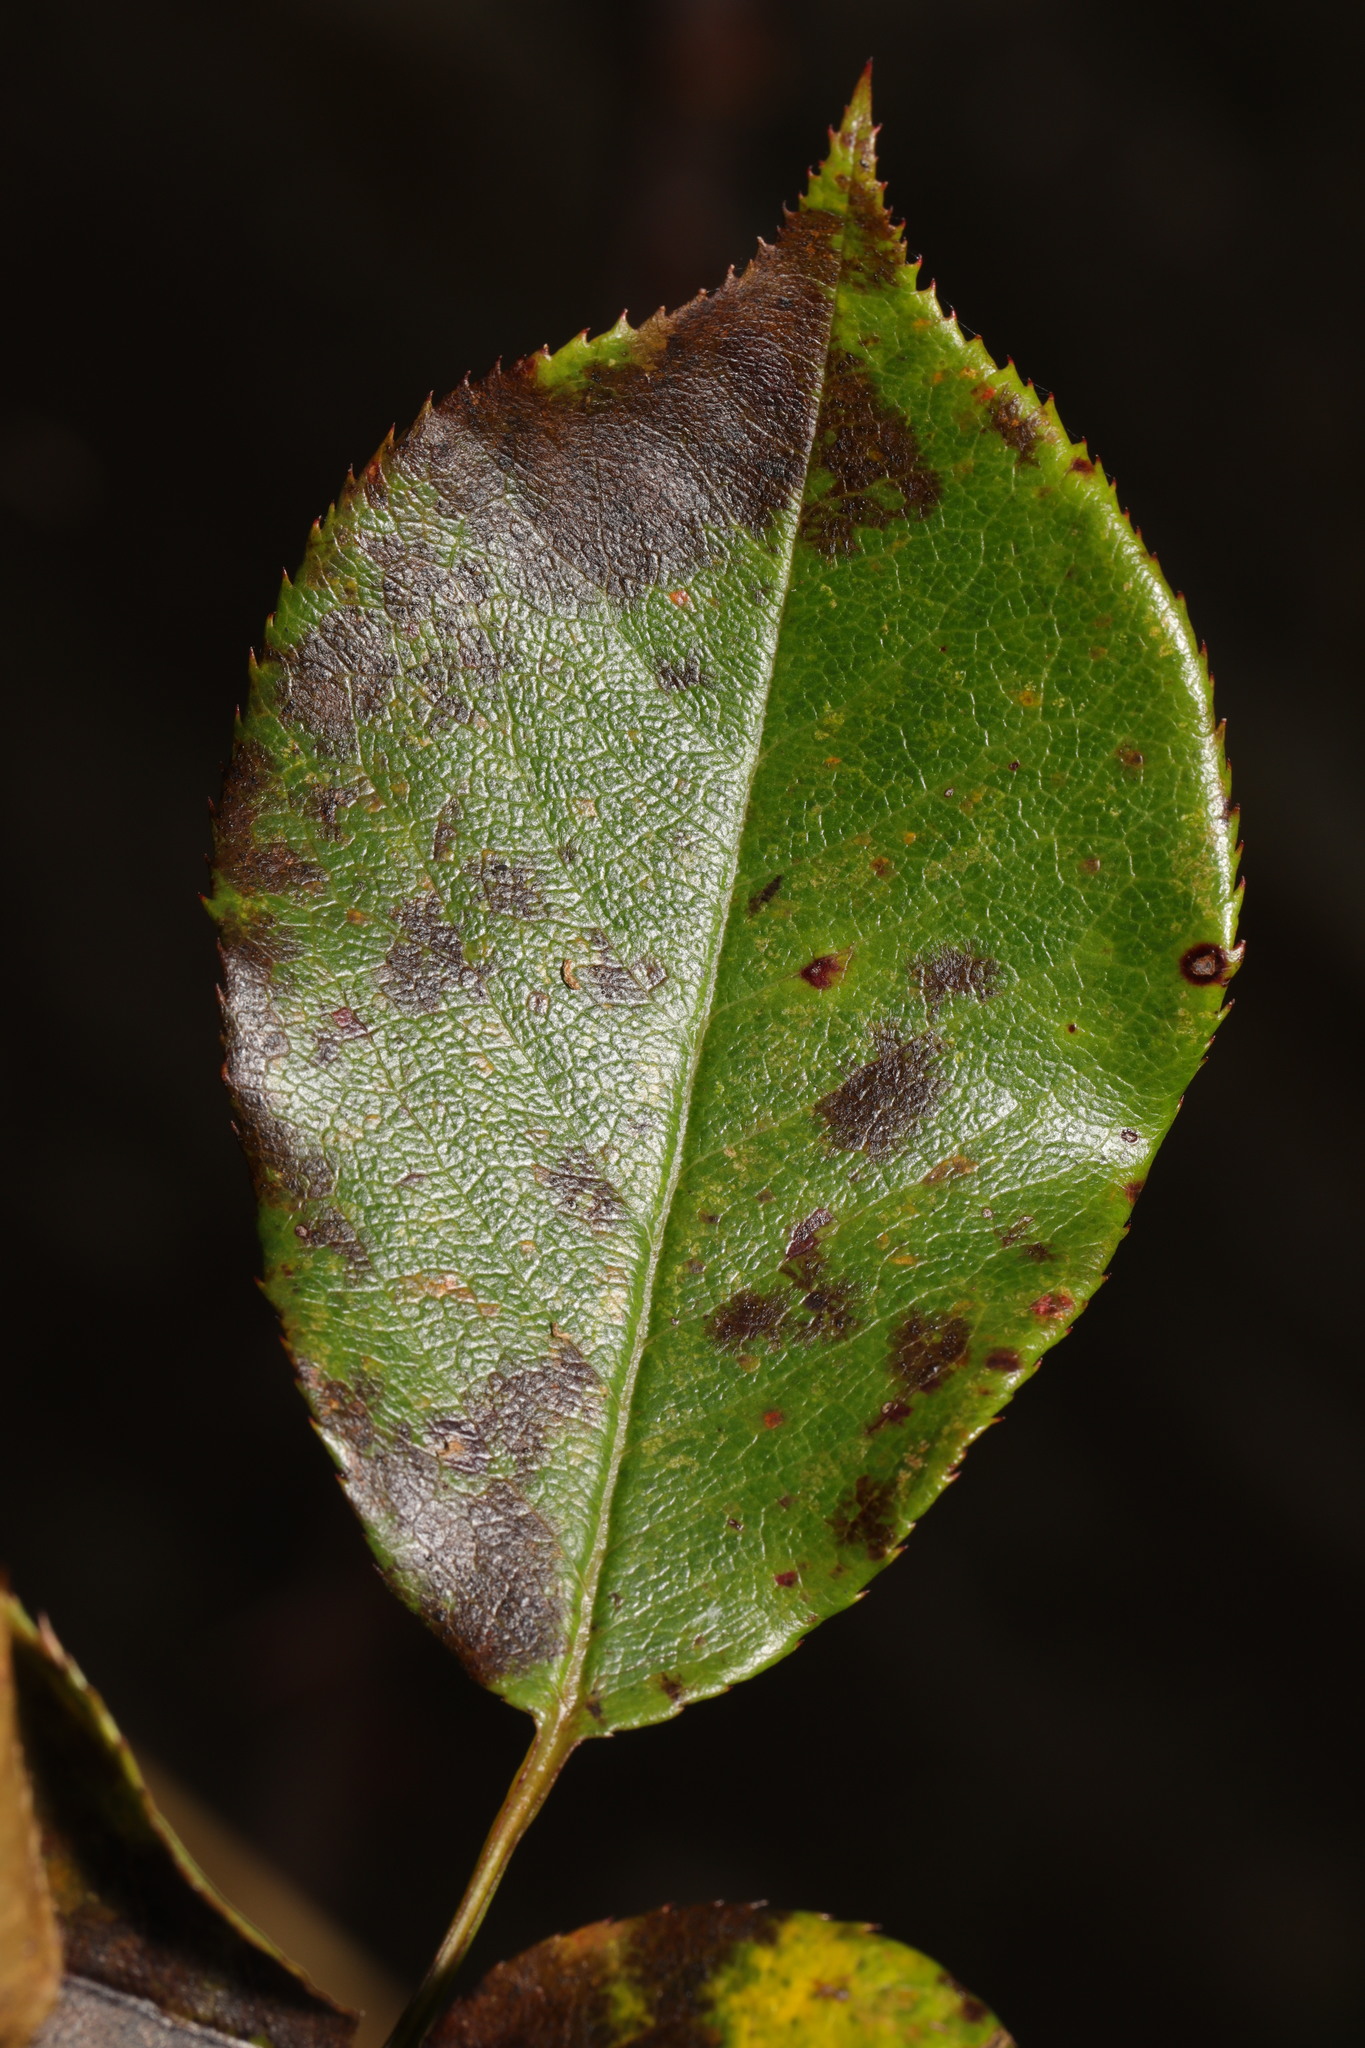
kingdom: Fungi
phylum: Ascomycota
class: Leotiomycetes
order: Helotiales
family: Drepanopezizaceae
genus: Diplocarpon
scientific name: Diplocarpon rosae
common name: Rose black-spot
